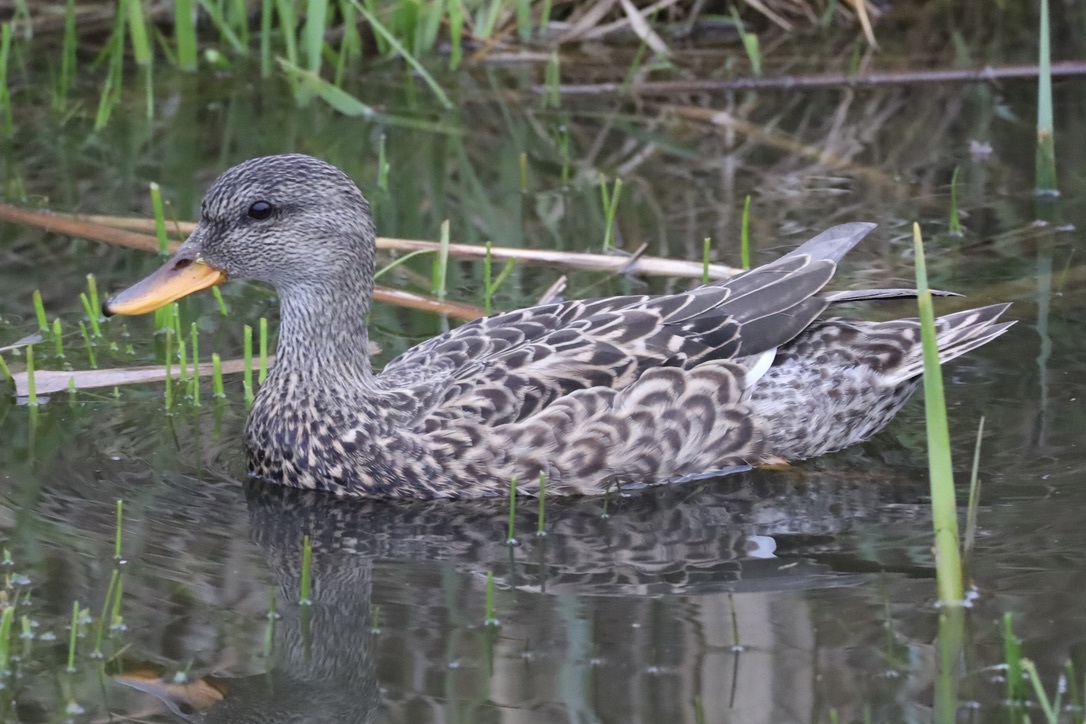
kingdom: Animalia
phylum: Chordata
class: Aves
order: Anseriformes
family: Anatidae
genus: Mareca
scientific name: Mareca strepera
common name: Gadwall
